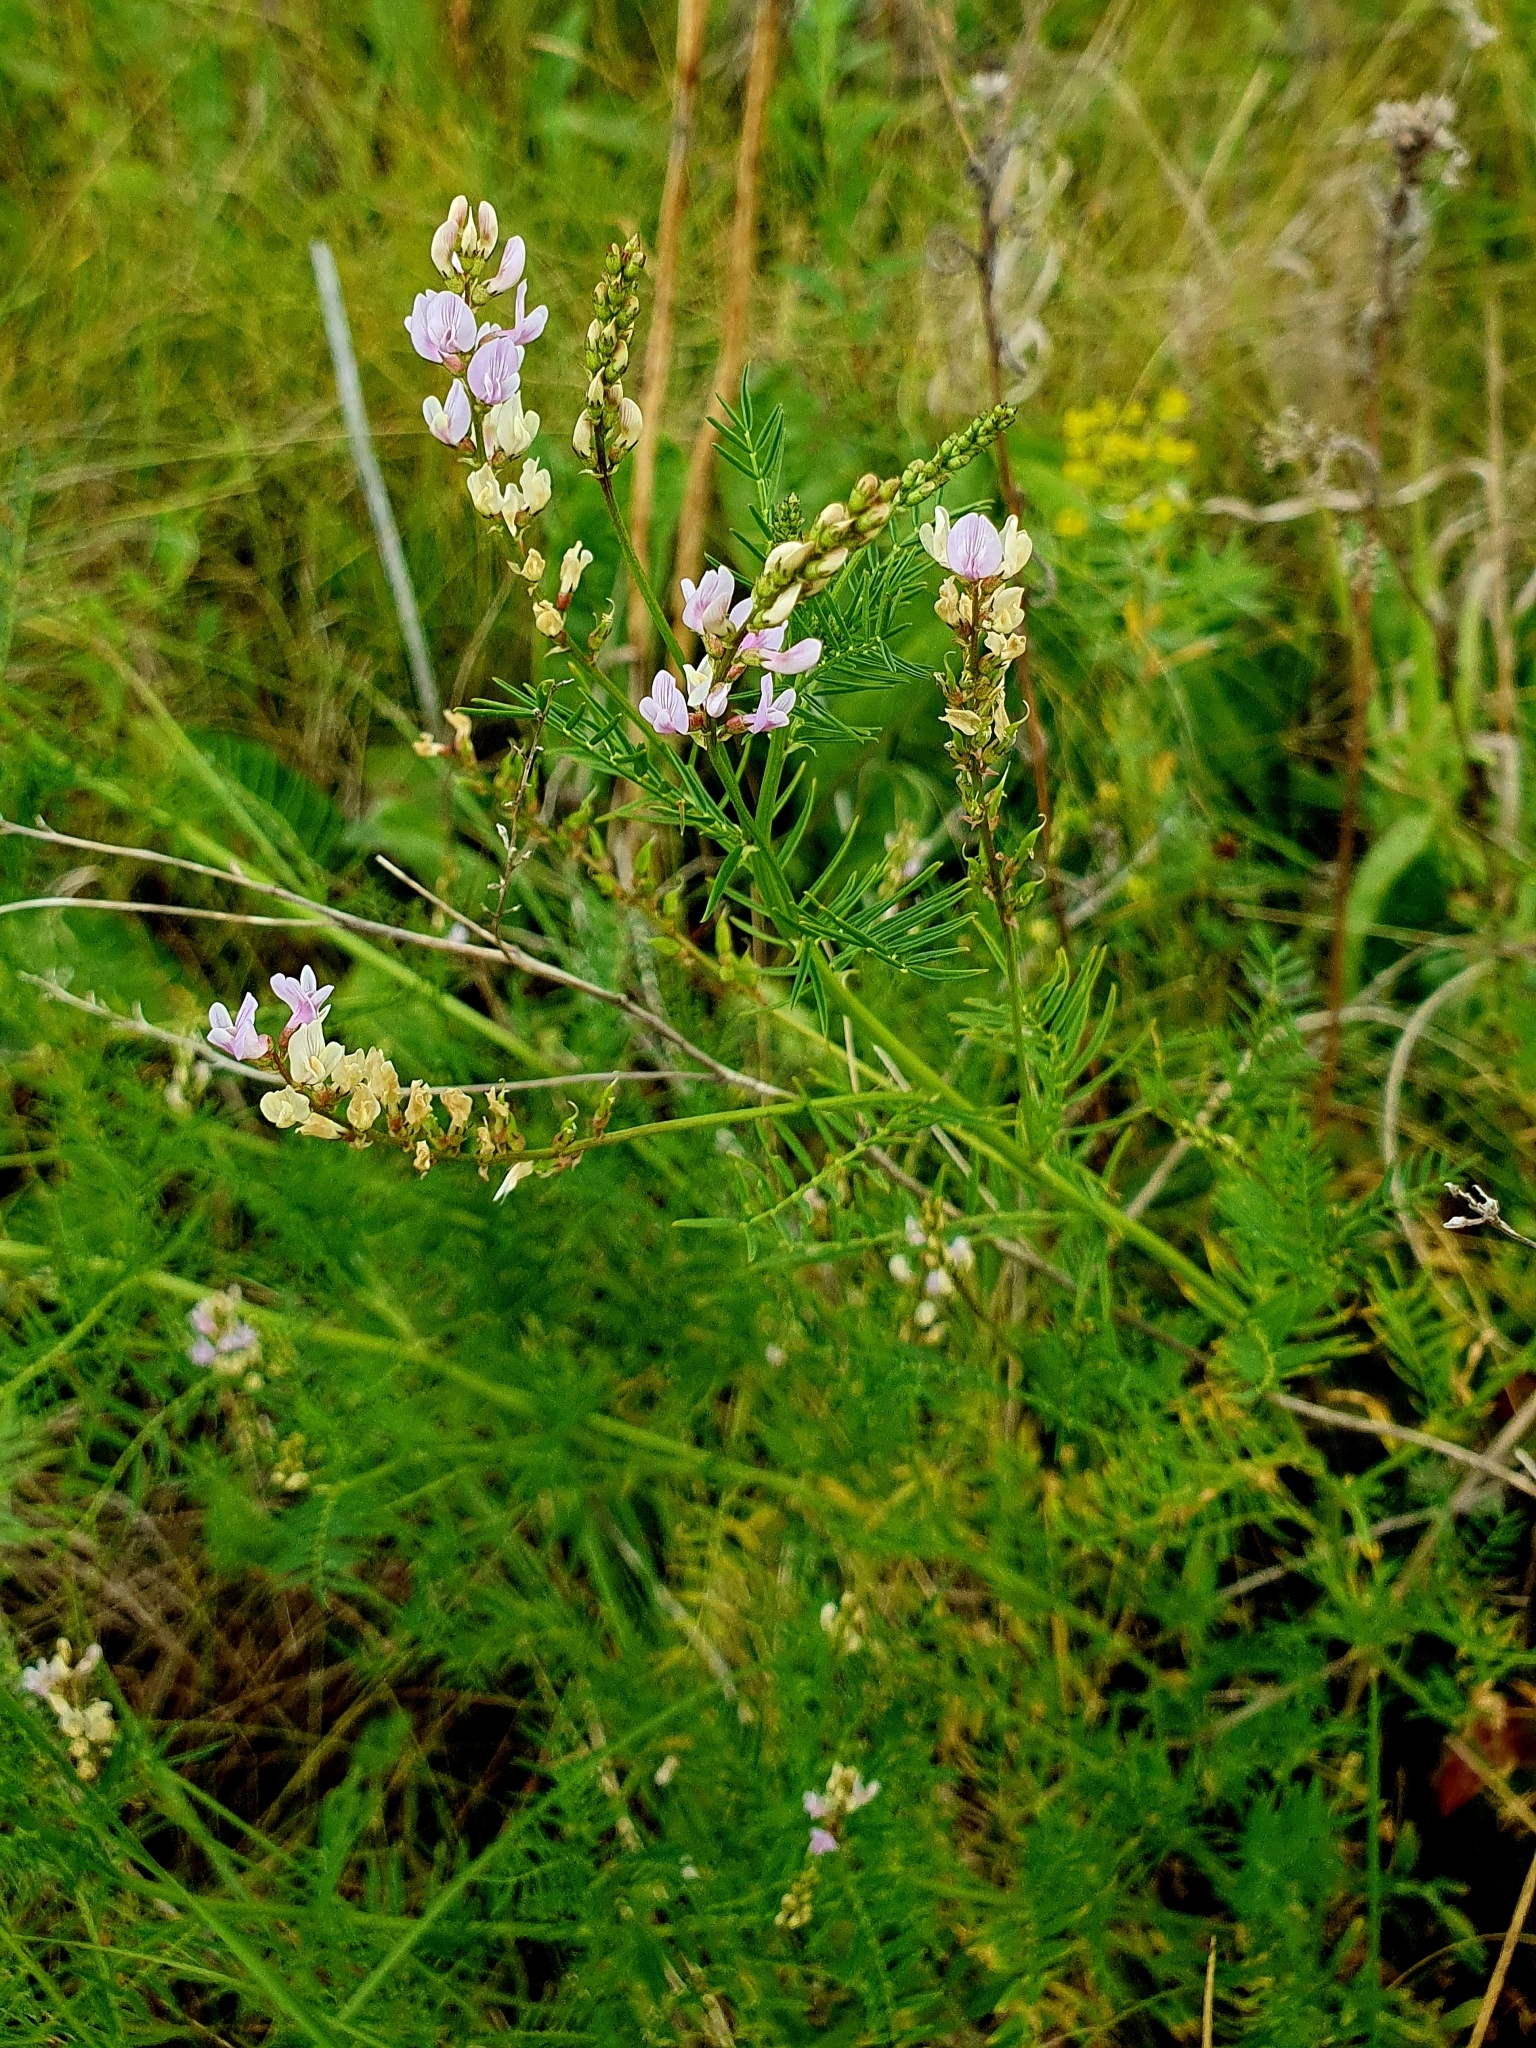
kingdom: Plantae
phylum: Tracheophyta
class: Magnoliopsida
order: Fabales
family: Fabaceae
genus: Astragalus
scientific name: Astragalus sulcatus
